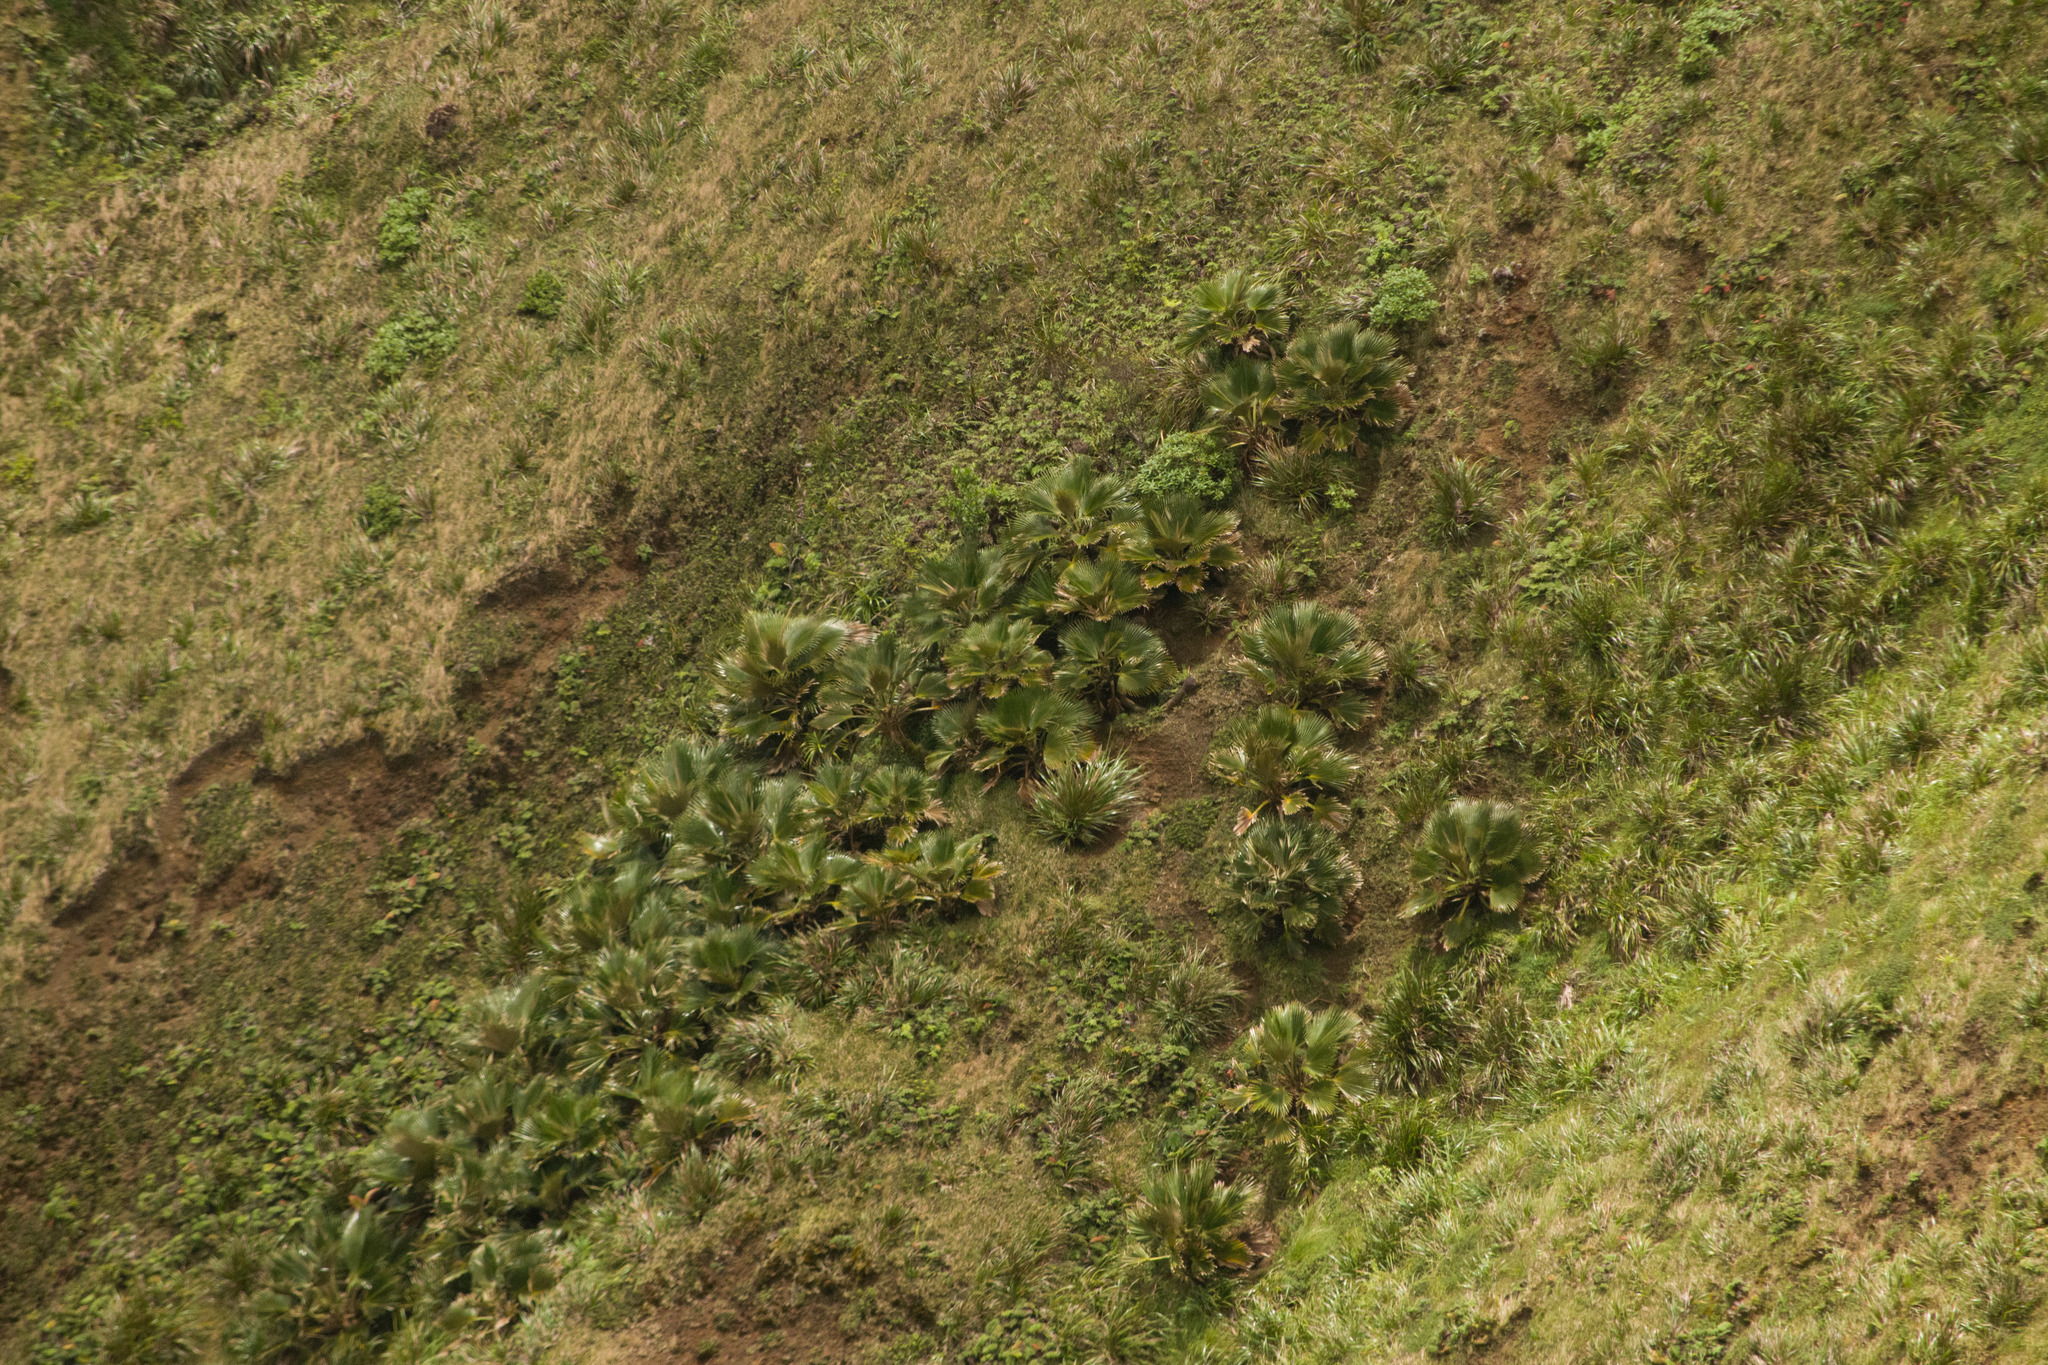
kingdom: Plantae
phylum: Tracheophyta
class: Liliopsida
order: Arecales
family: Arecaceae
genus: Pritchardia
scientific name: Pritchardia martii
